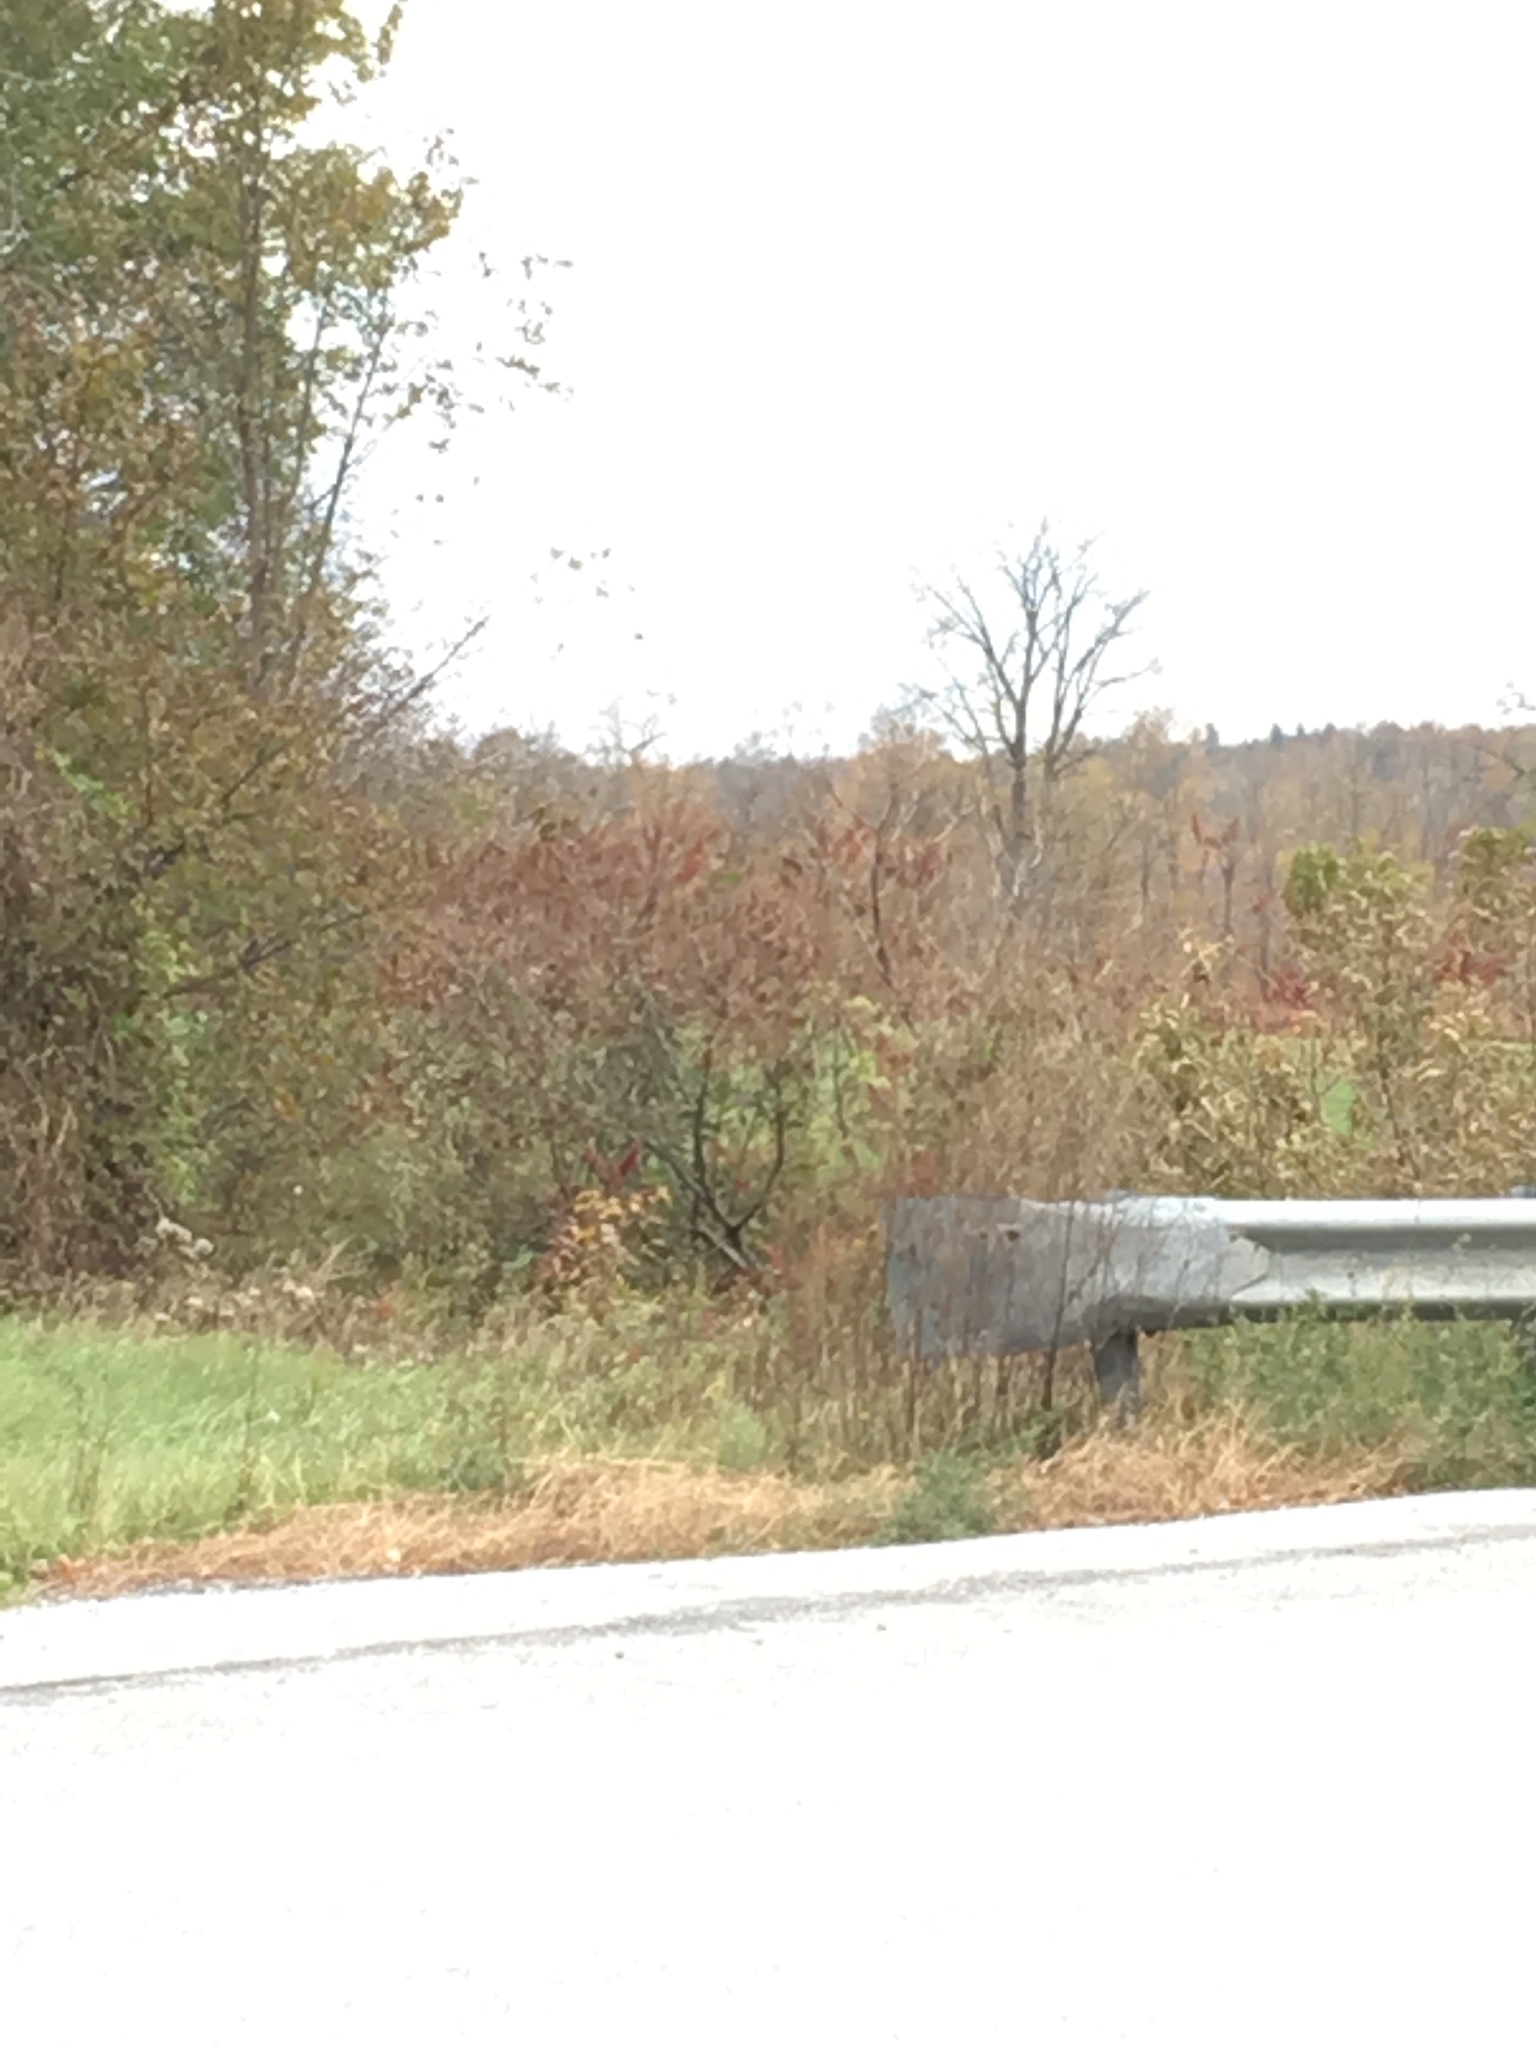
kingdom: Plantae
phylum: Tracheophyta
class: Magnoliopsida
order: Sapindales
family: Anacardiaceae
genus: Rhus
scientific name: Rhus typhina
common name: Staghorn sumac
